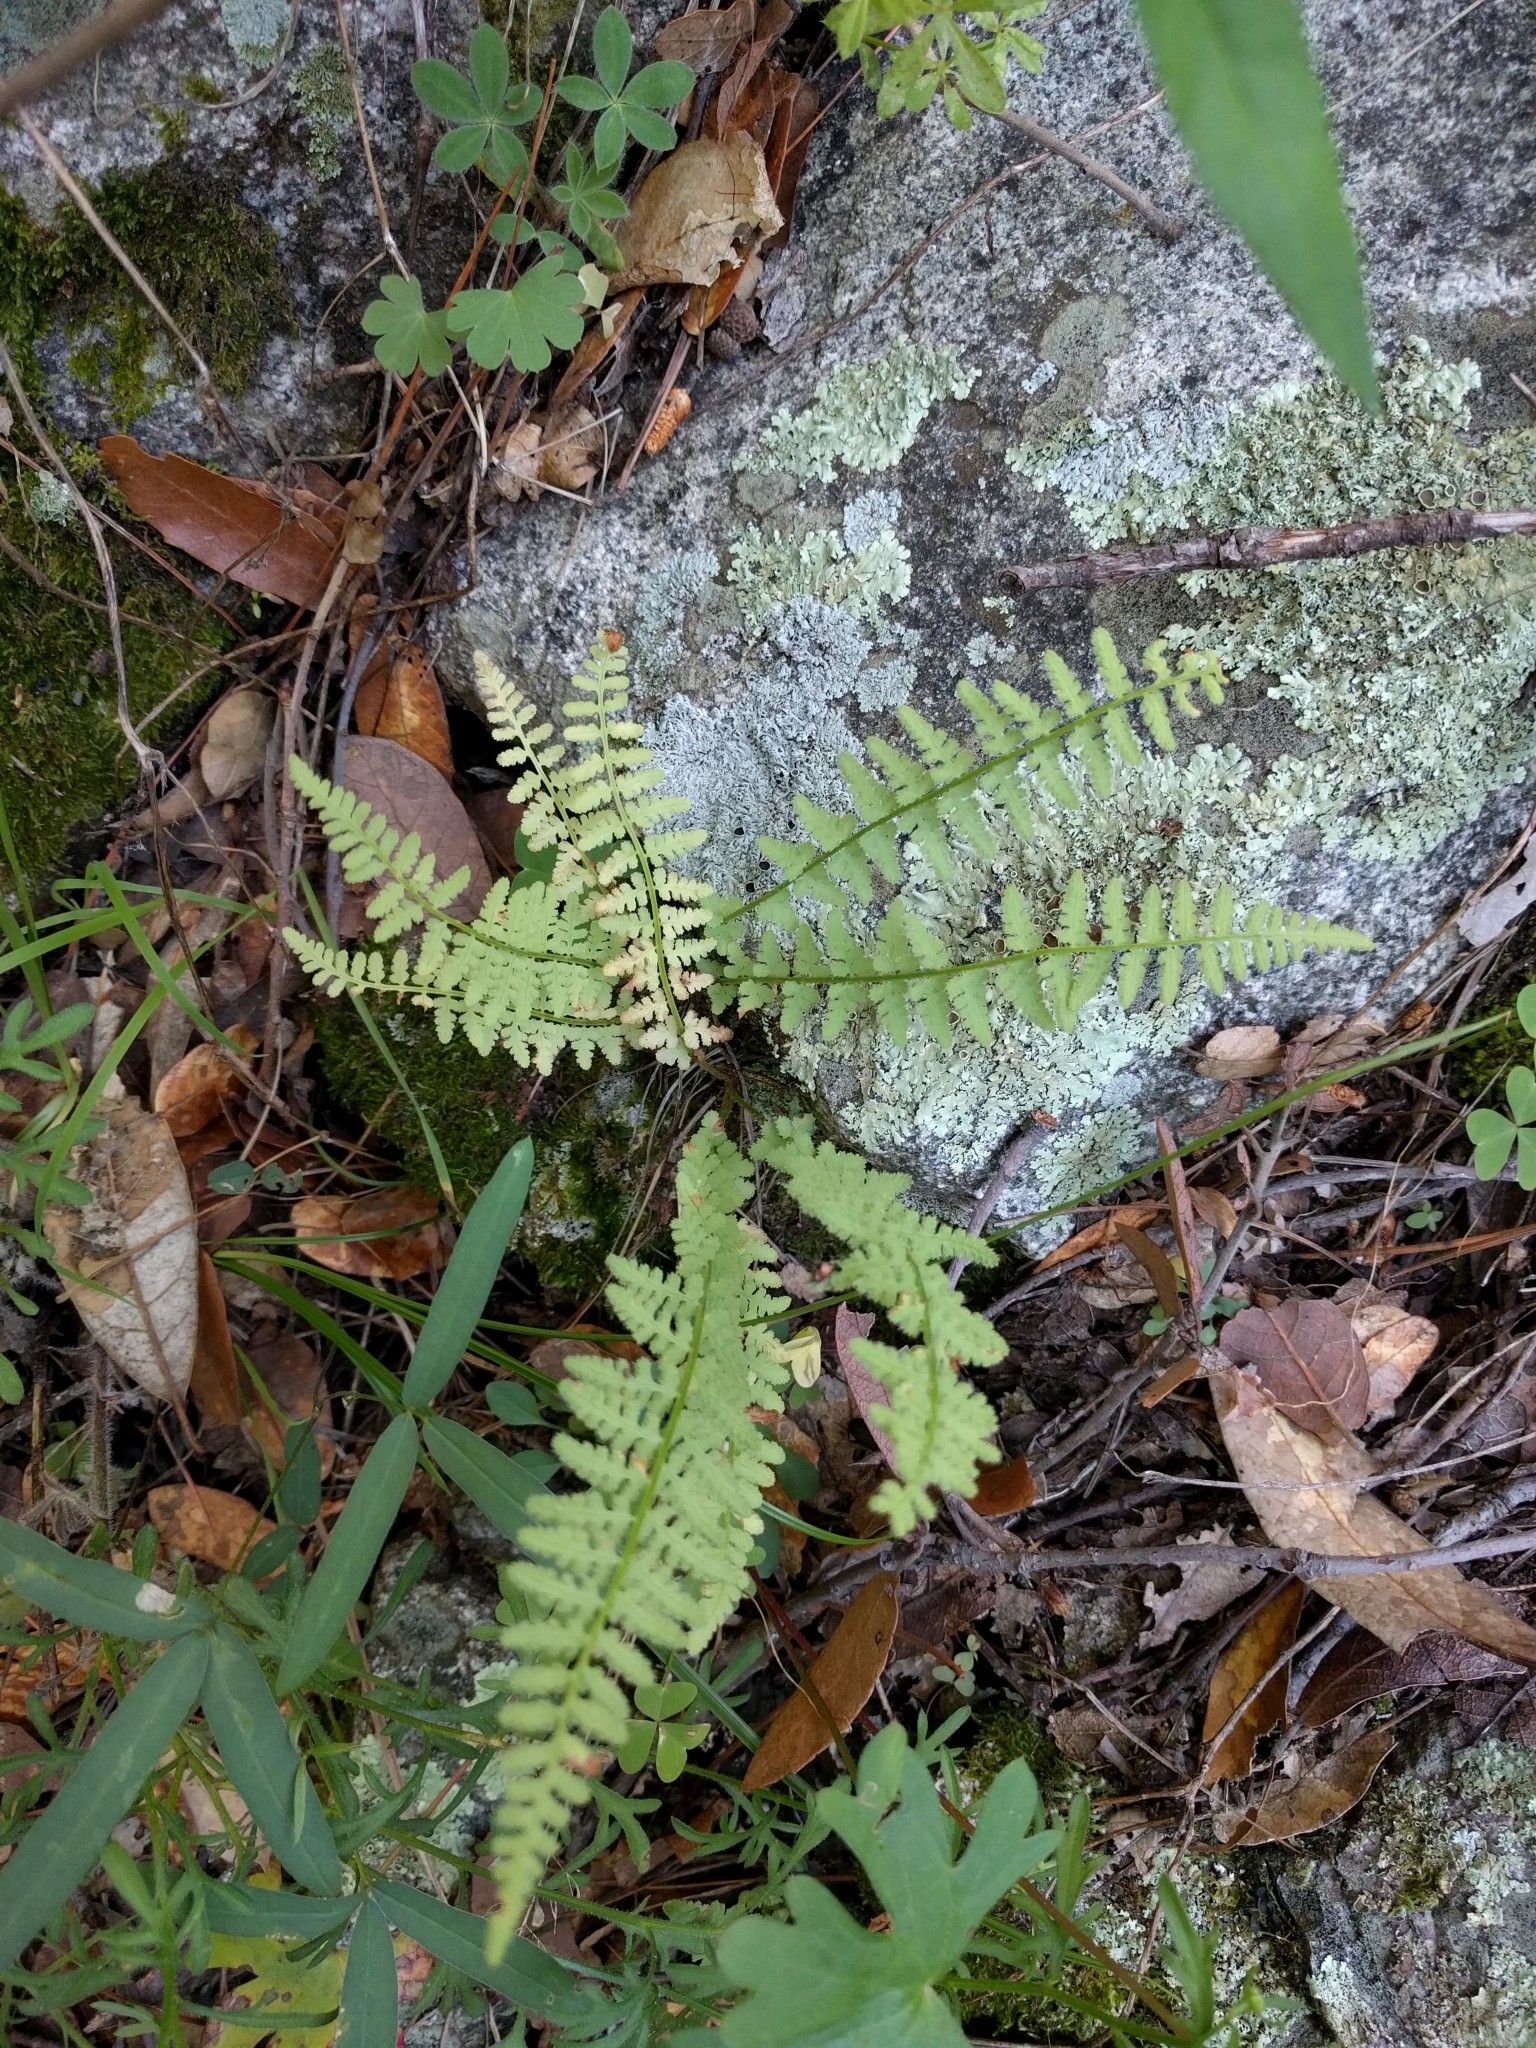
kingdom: Plantae
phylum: Tracheophyta
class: Polypodiopsida
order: Polypodiales
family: Woodsiaceae
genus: Physematium
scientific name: Physematium phillipsii
